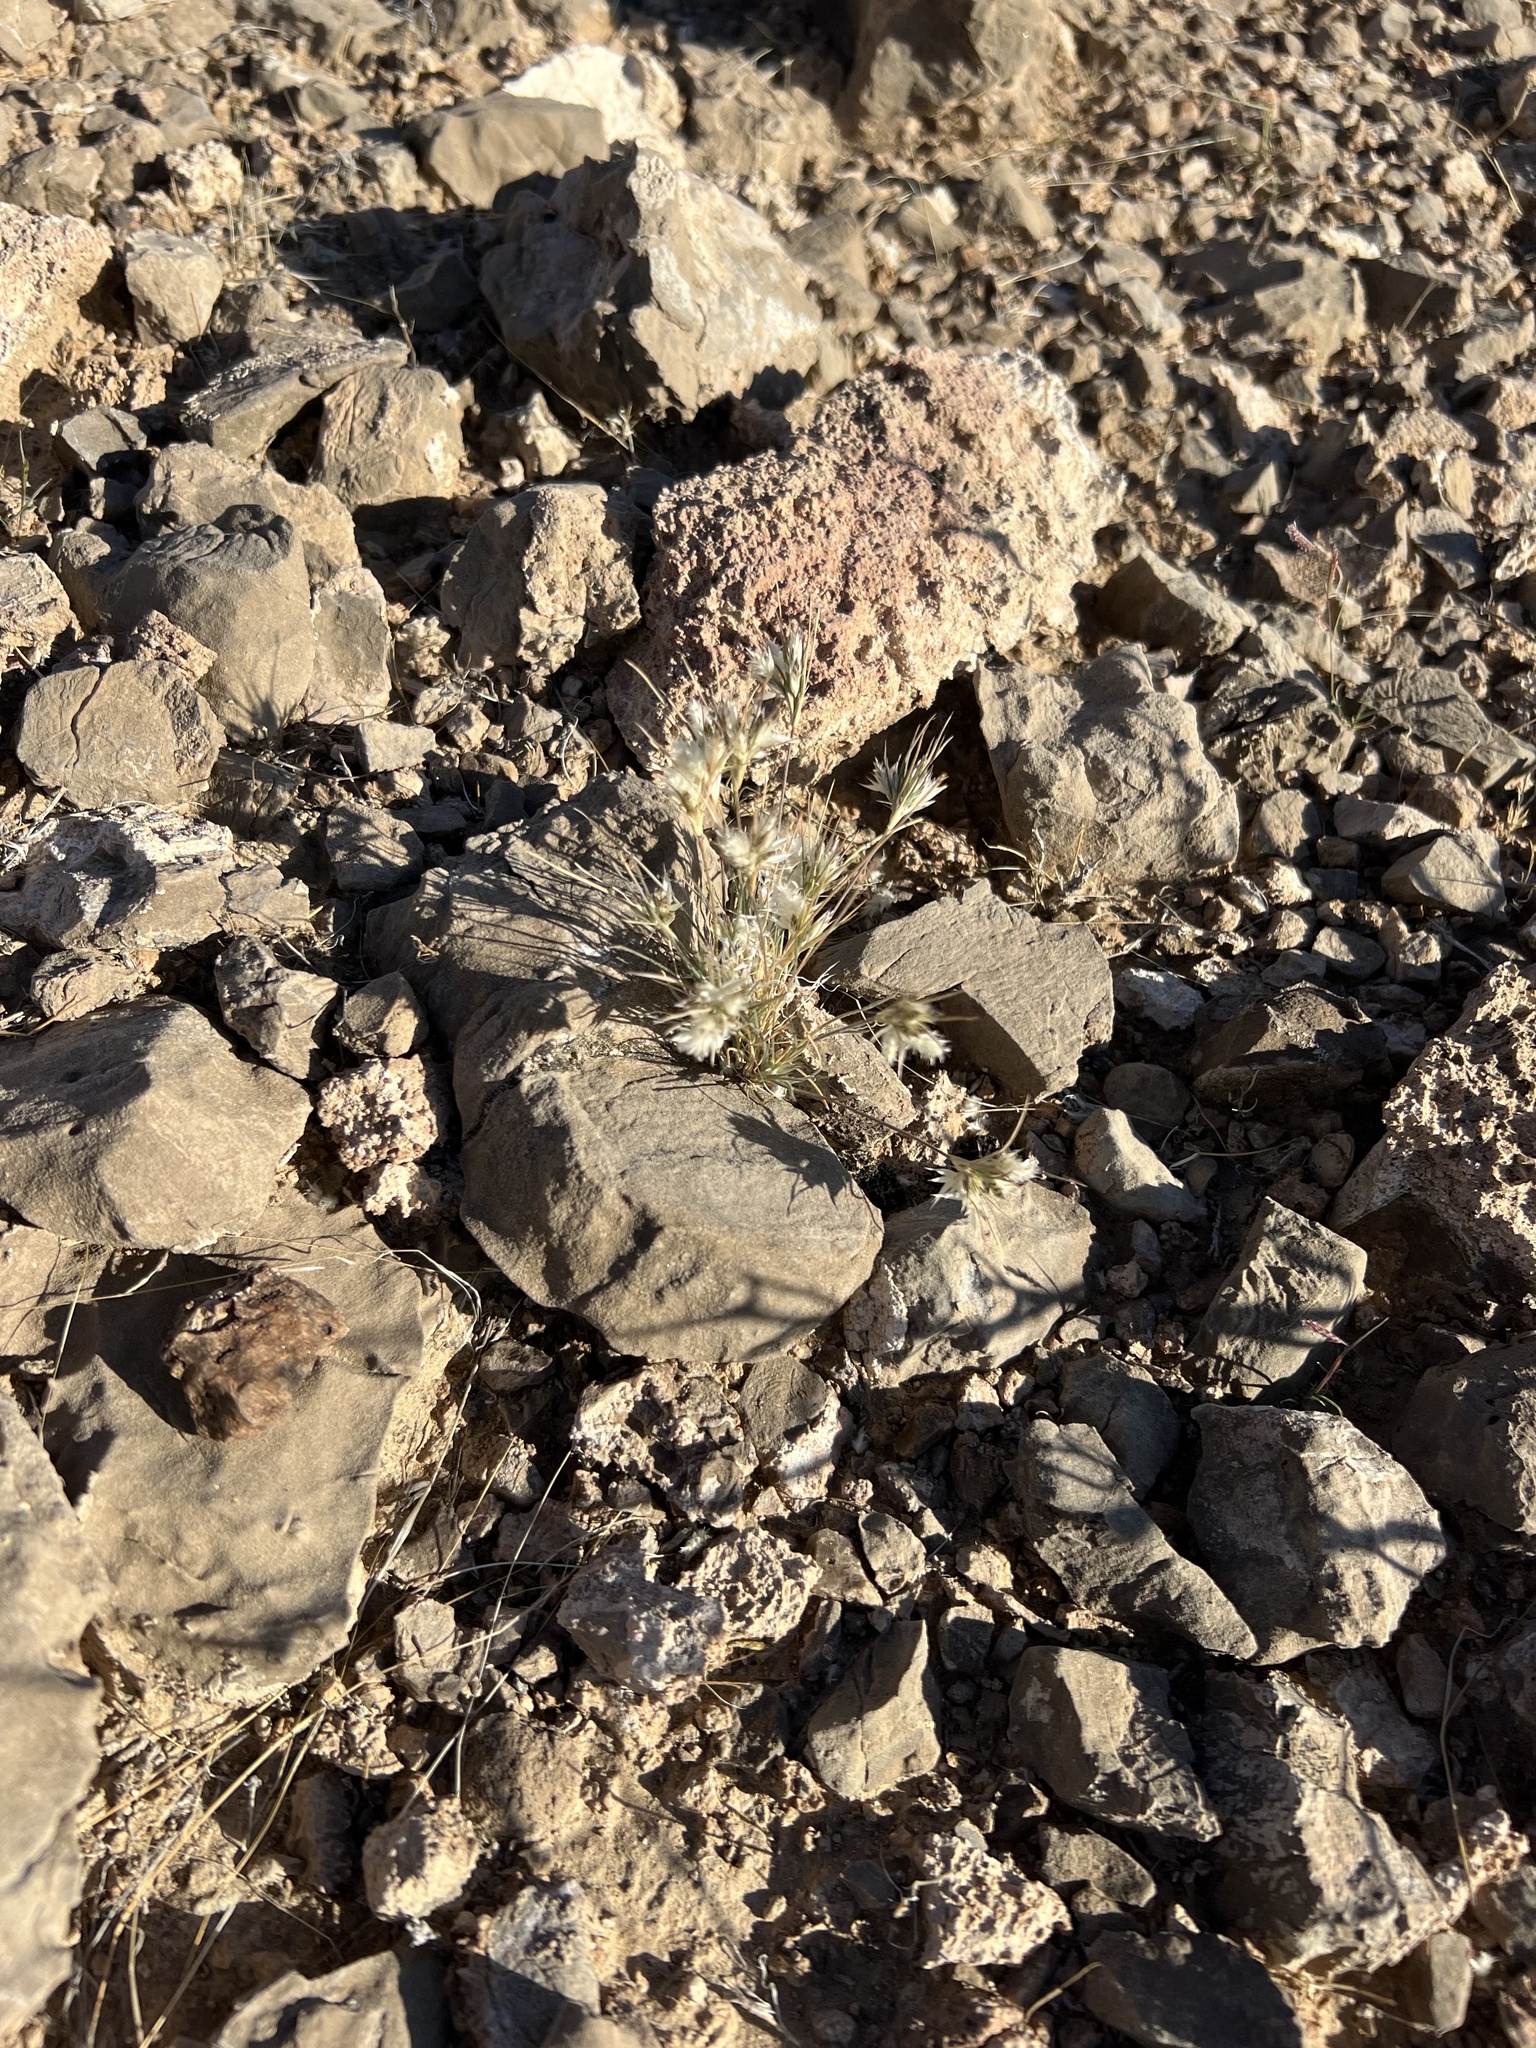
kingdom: Plantae
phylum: Tracheophyta
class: Liliopsida
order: Poales
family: Poaceae
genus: Dasyochloa
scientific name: Dasyochloa pulchella
